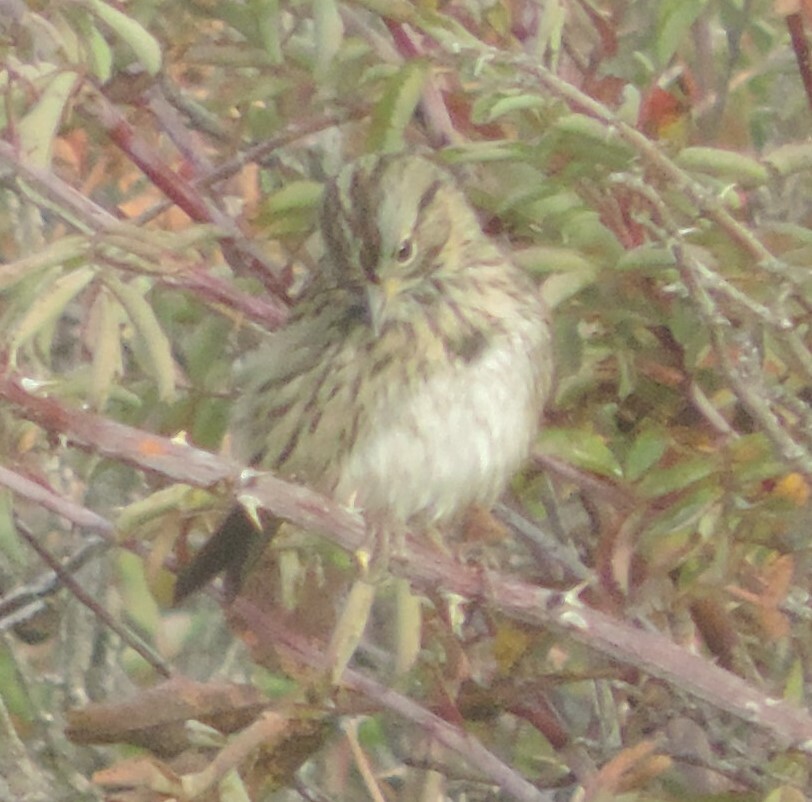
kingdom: Animalia
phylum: Chordata
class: Aves
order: Passeriformes
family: Passerellidae
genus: Melospiza
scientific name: Melospiza lincolnii
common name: Lincoln's sparrow
